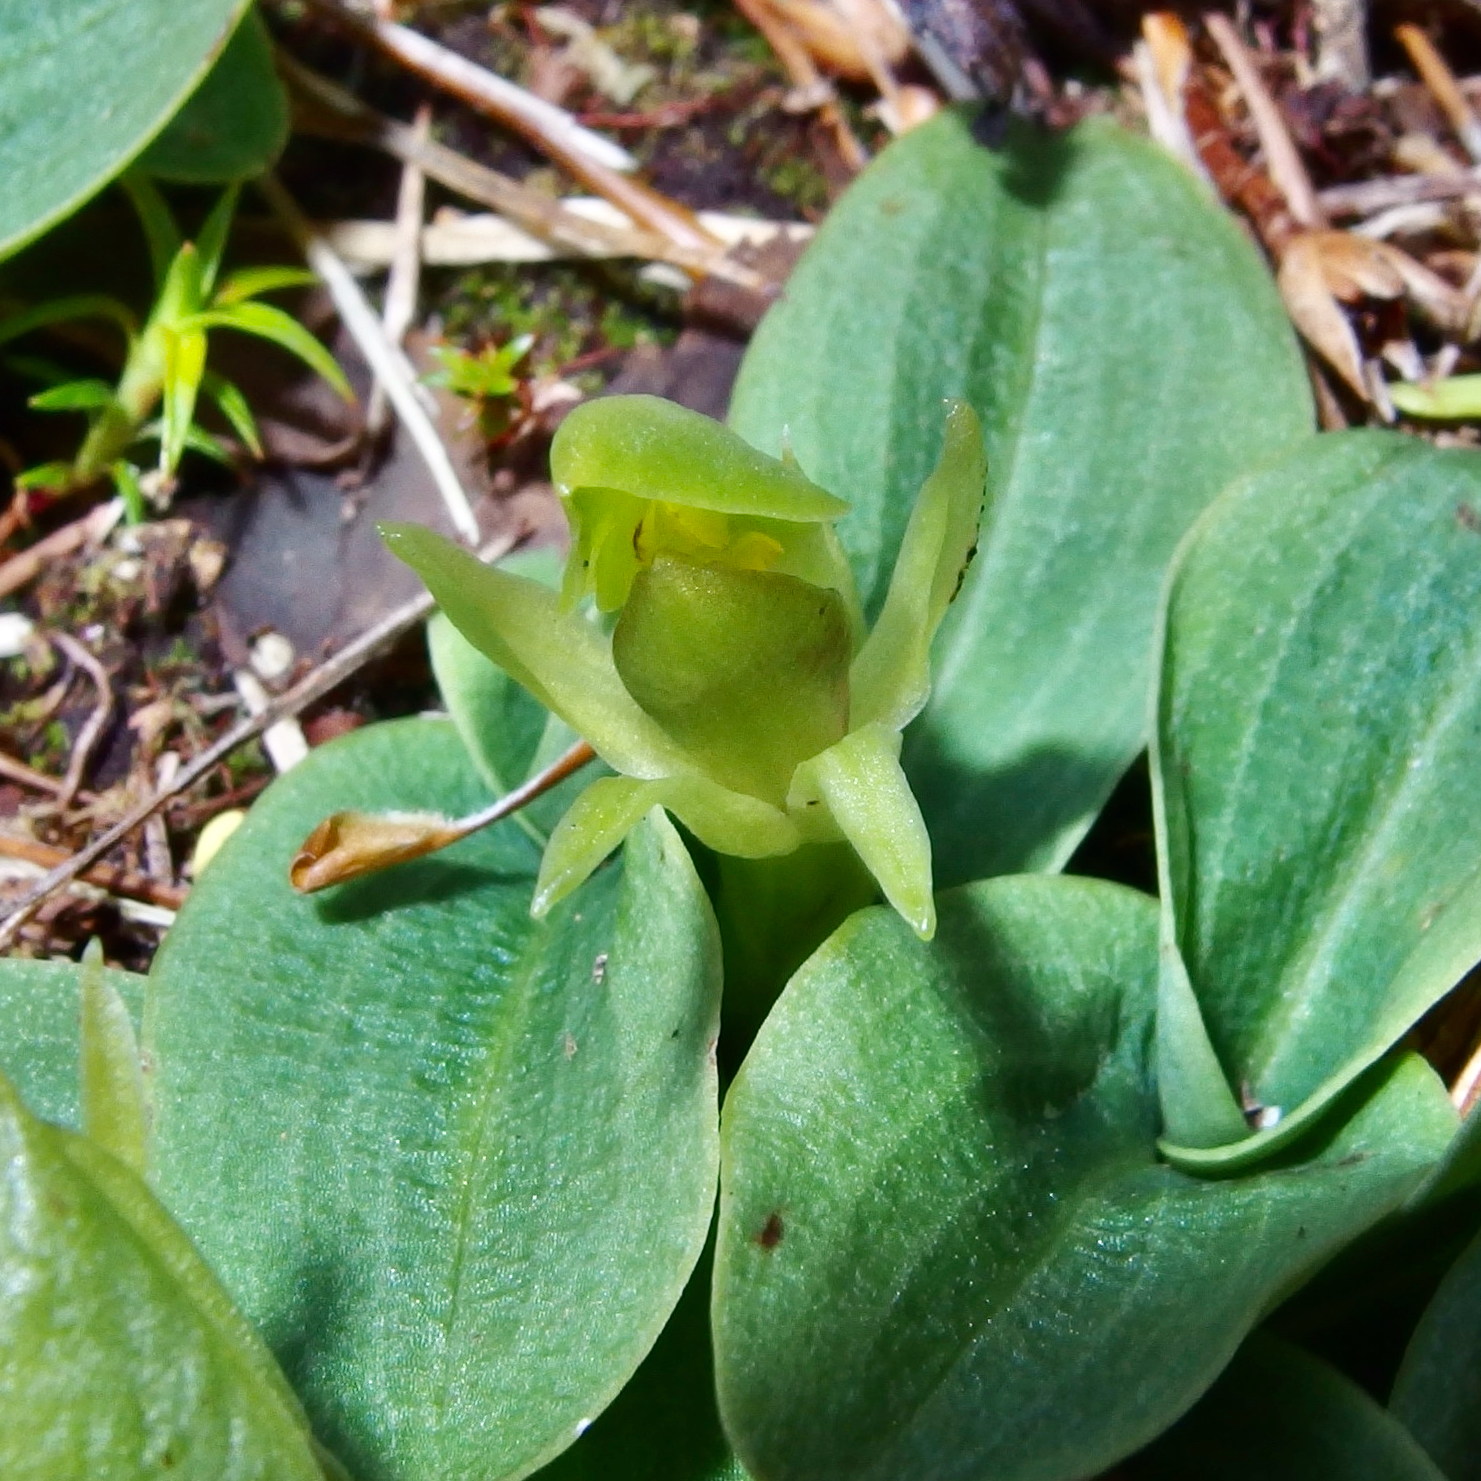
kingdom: Plantae
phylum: Tracheophyta
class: Liliopsida
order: Asparagales
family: Orchidaceae
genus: Chiloglottis
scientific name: Chiloglottis cornuta
